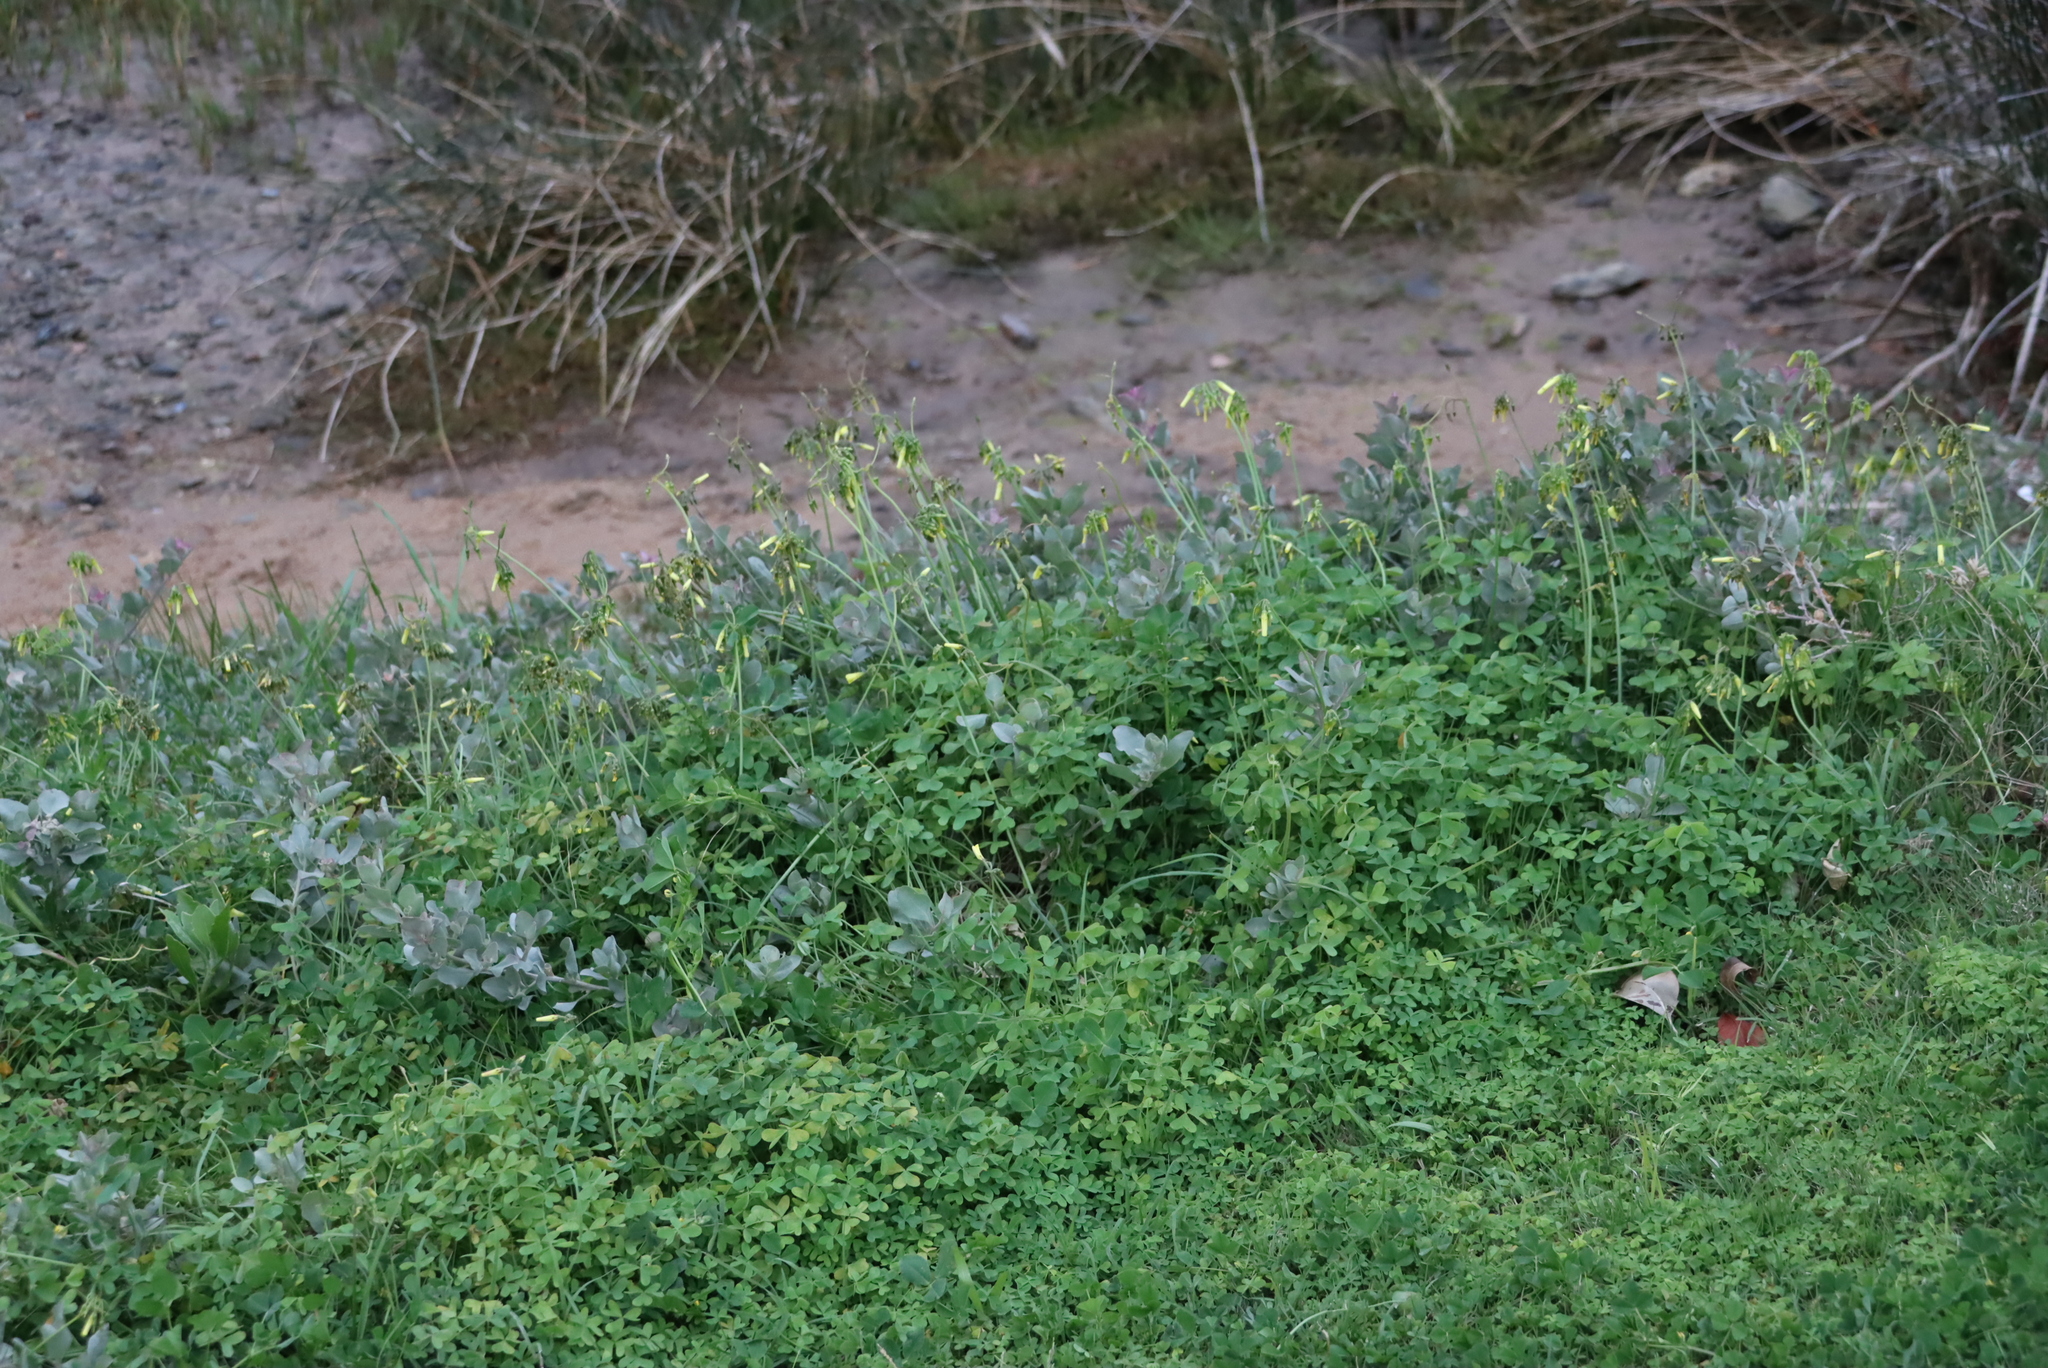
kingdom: Plantae
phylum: Tracheophyta
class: Magnoliopsida
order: Oxalidales
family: Oxalidaceae
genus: Oxalis
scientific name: Oxalis pes-caprae
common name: Bermuda-buttercup
